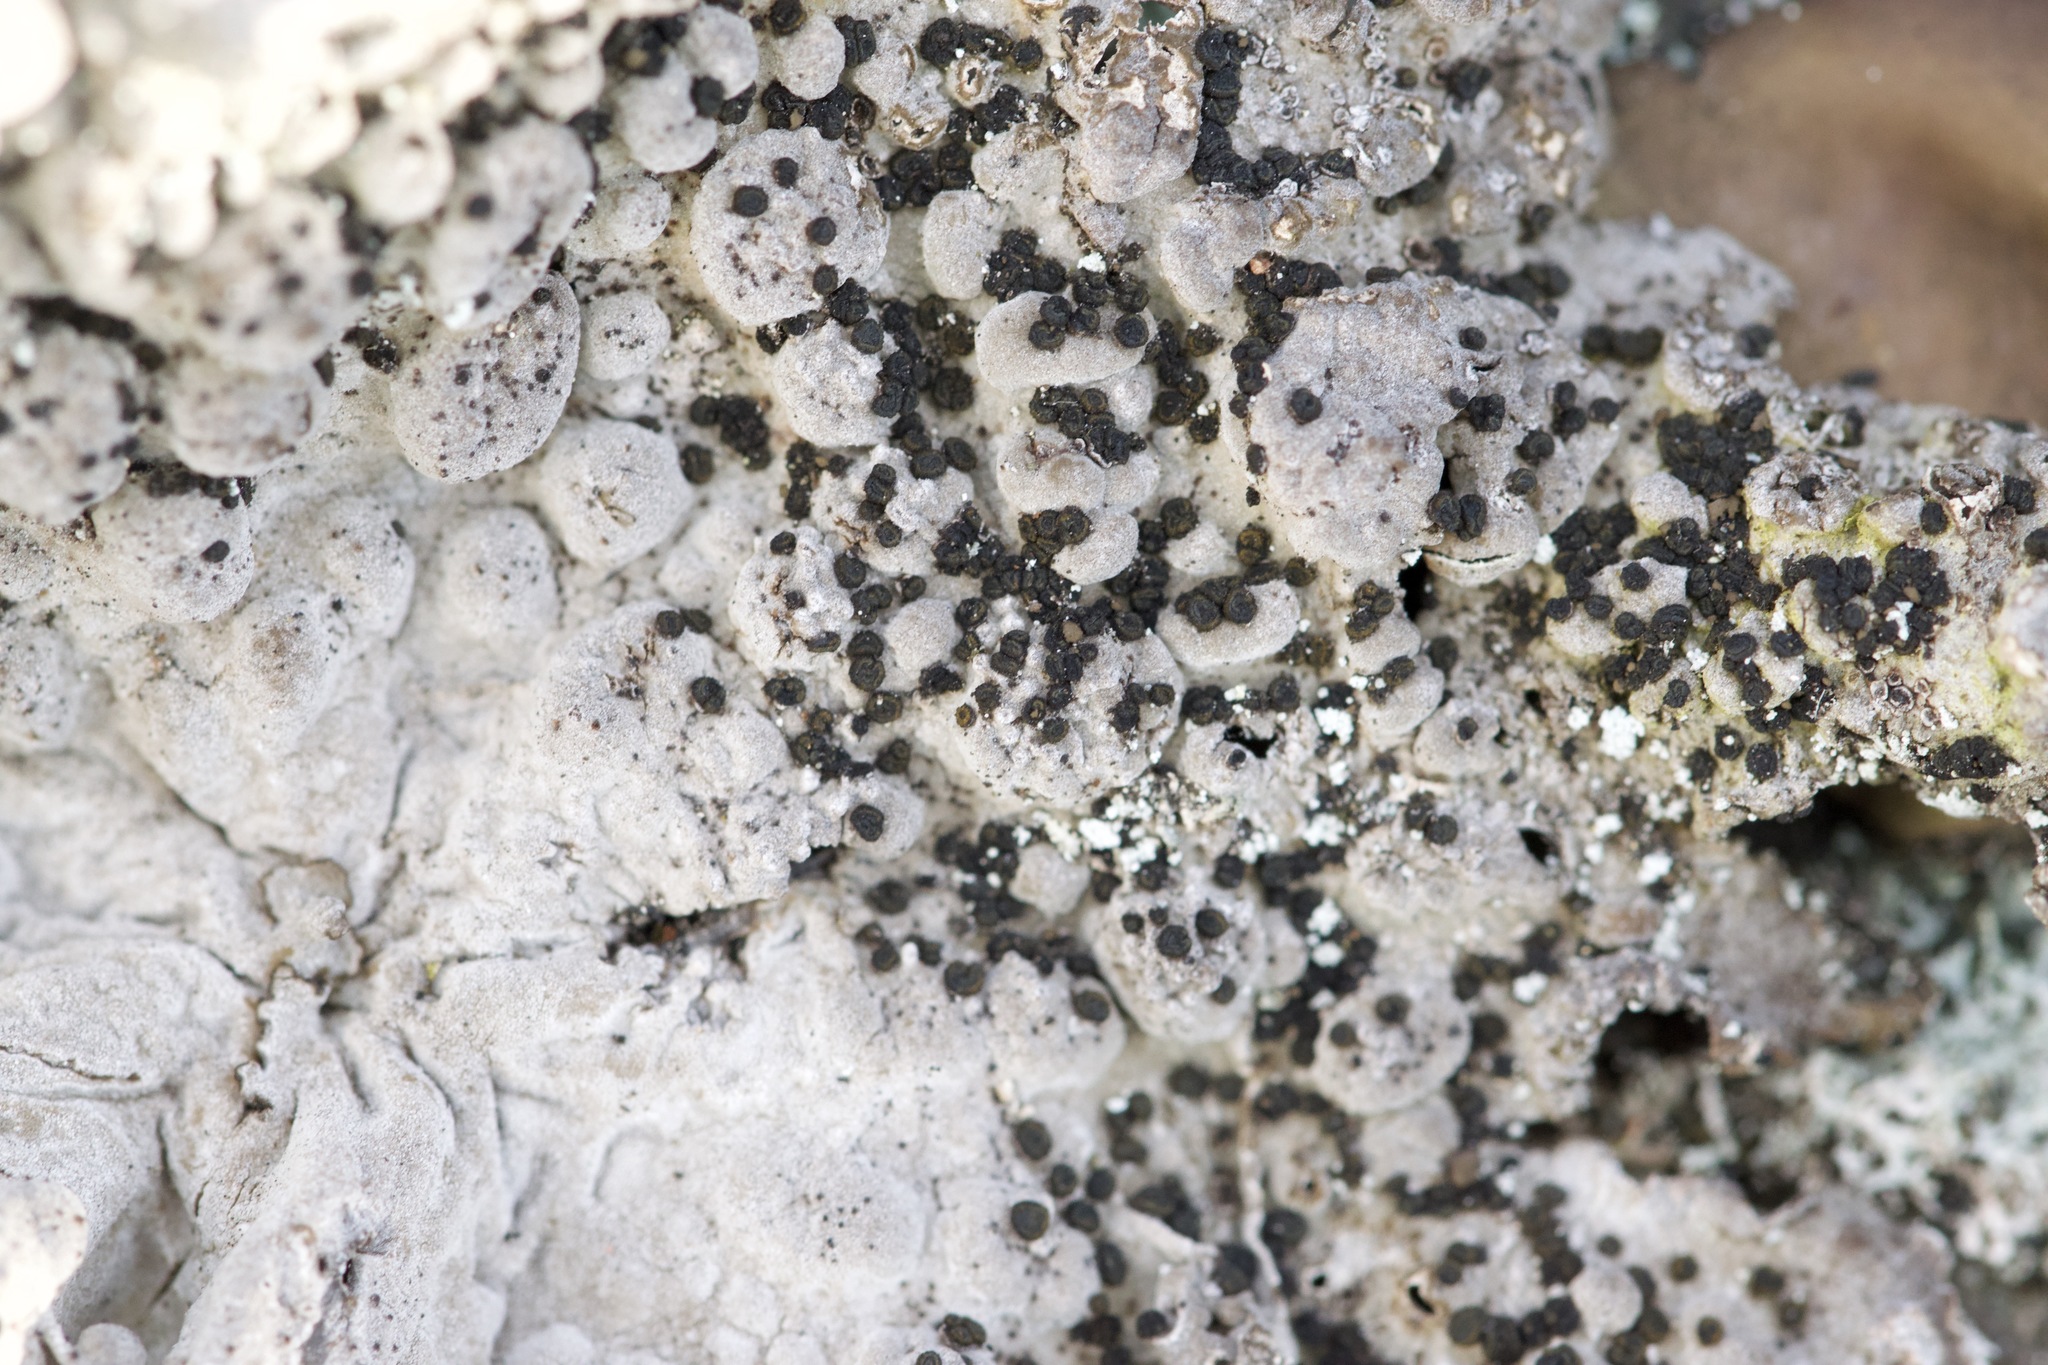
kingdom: Fungi
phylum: Ascomycota
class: Lecanoromycetes
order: Umbilicariales
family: Umbilicariaceae
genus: Lasallia
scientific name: Lasallia papulosa
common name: Common toadskin lichen
